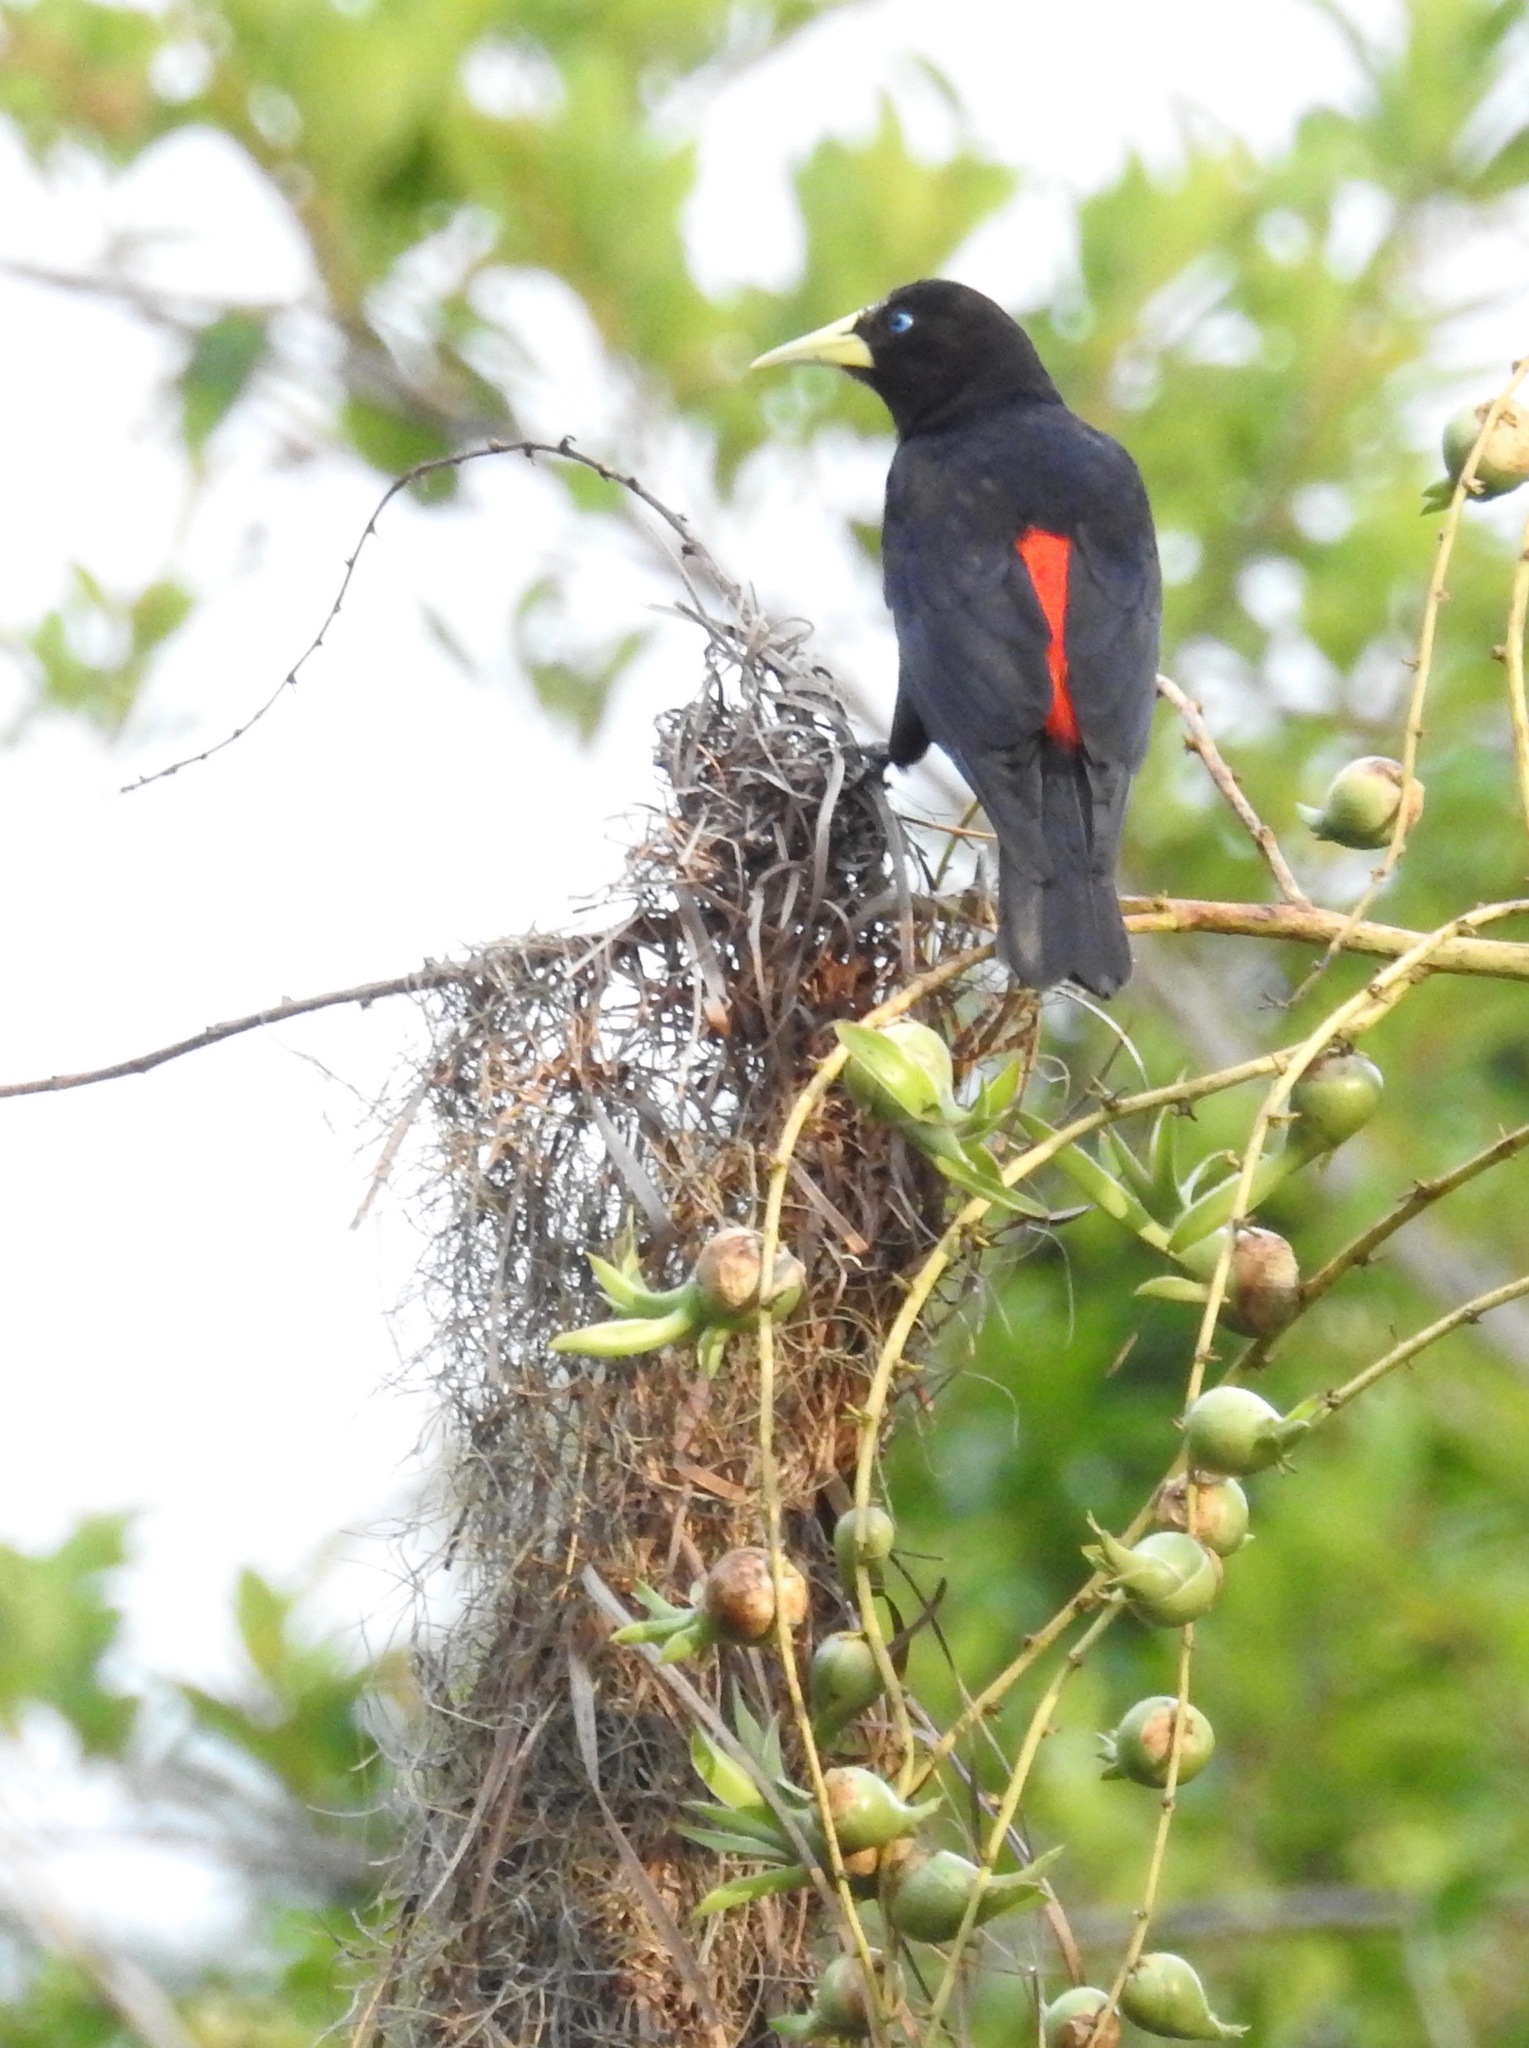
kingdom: Animalia
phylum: Chordata
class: Aves
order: Passeriformes
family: Icteridae
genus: Cacicus
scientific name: Cacicus haemorrhous
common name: Red-rumped cacique
